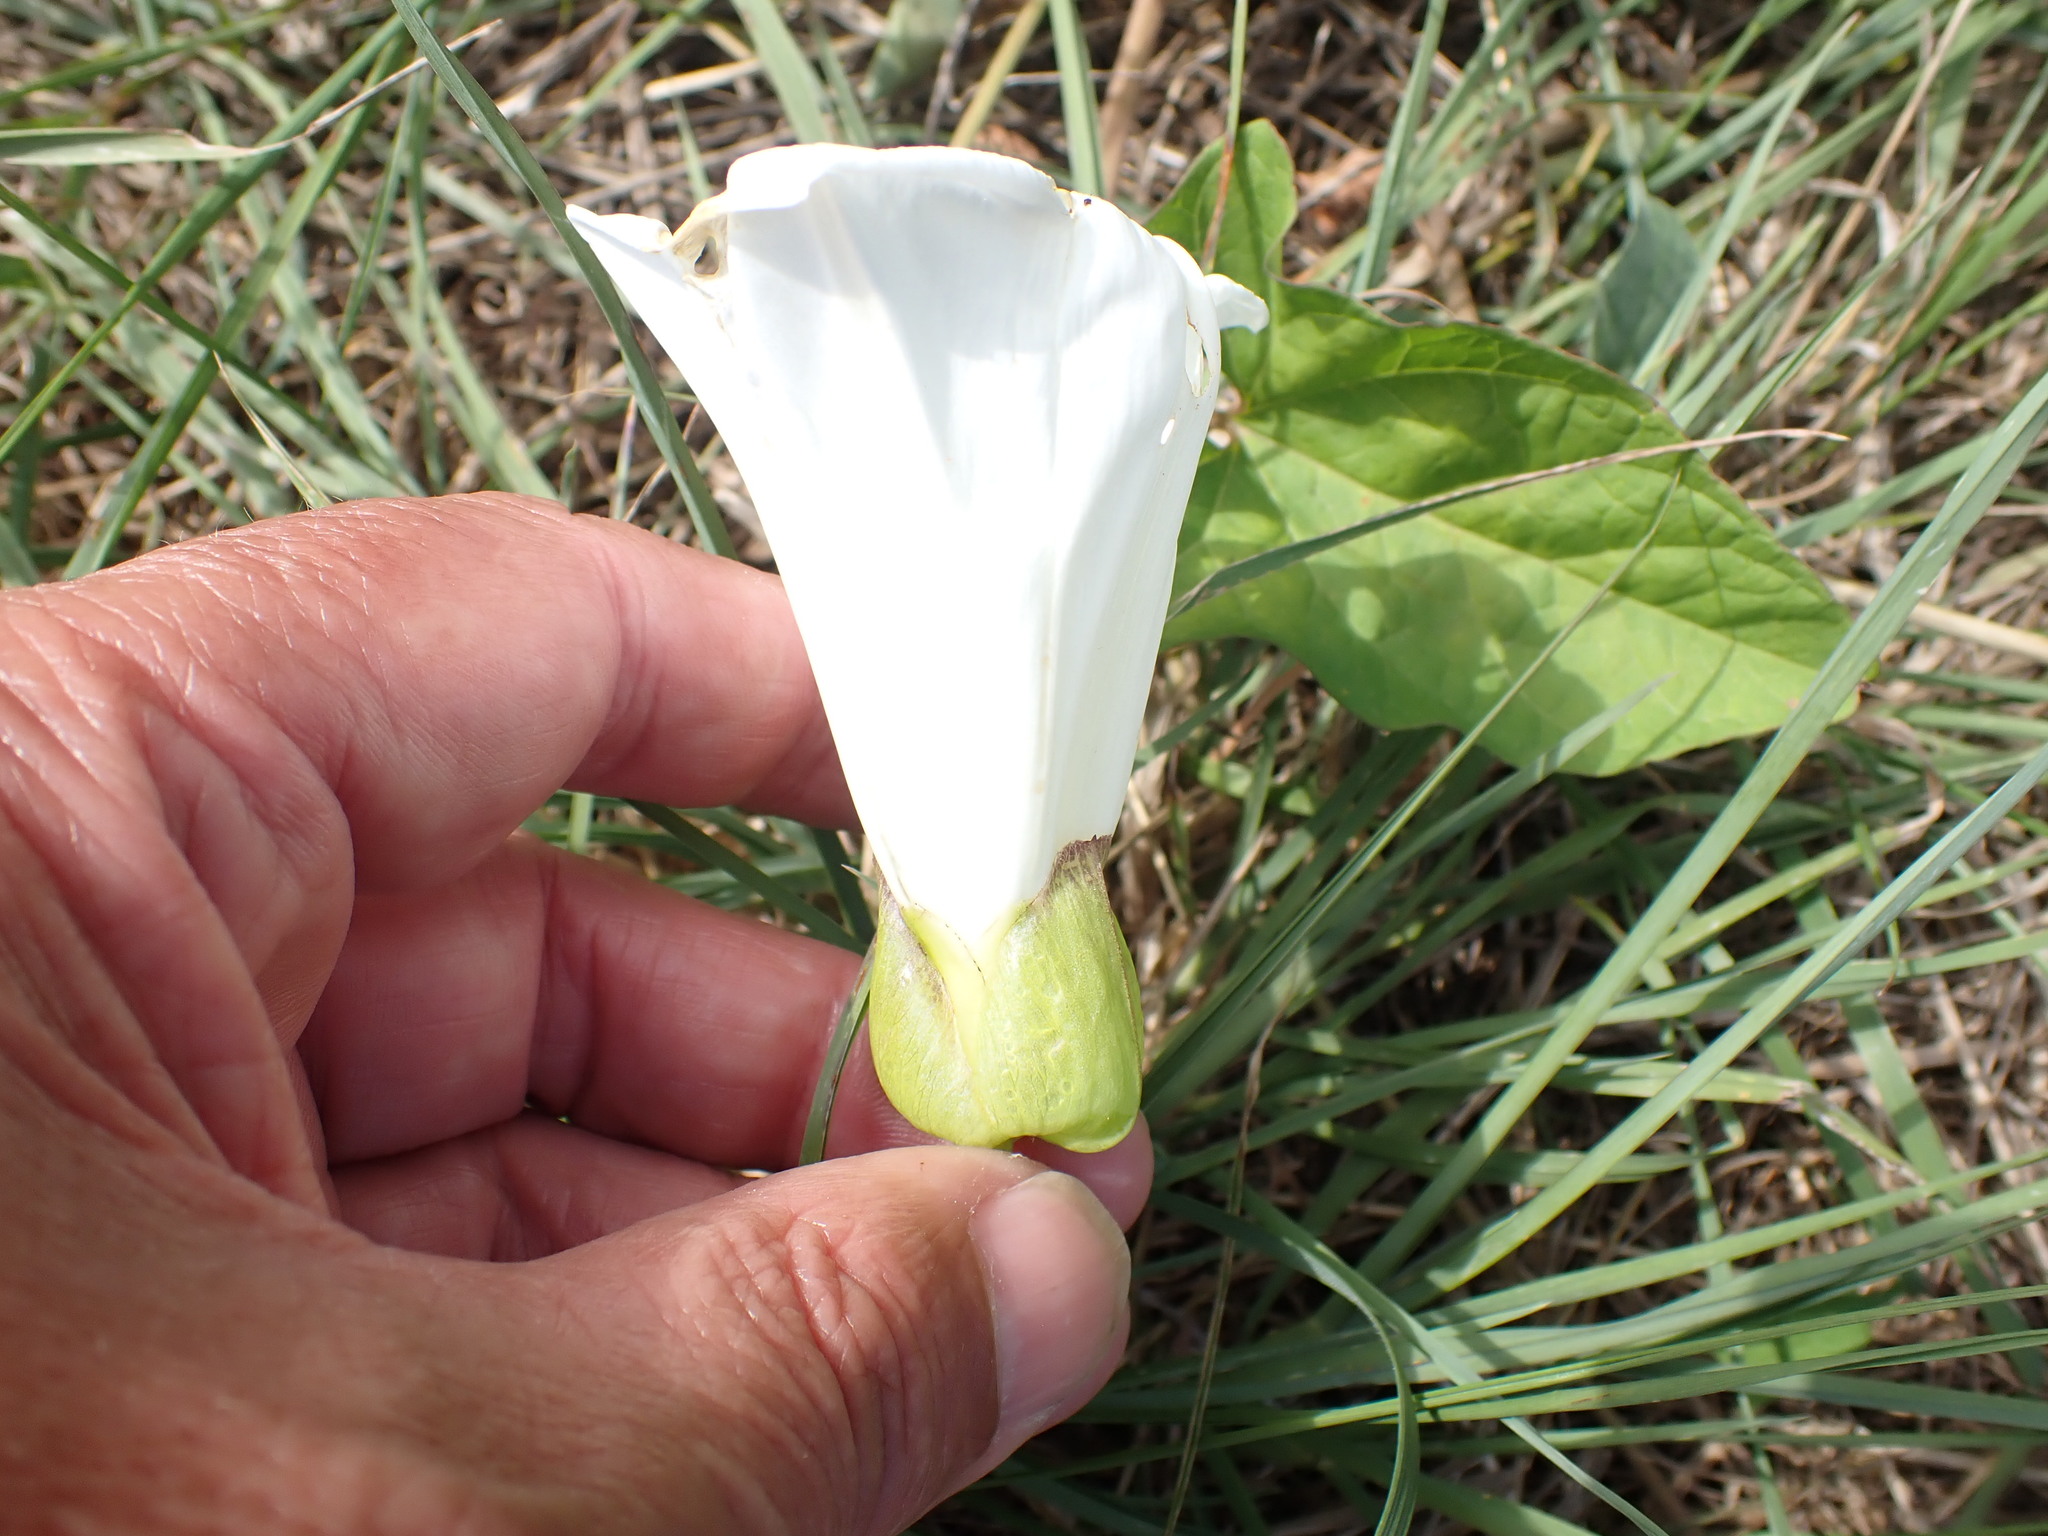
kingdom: Plantae
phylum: Tracheophyta
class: Magnoliopsida
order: Solanales
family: Convolvulaceae
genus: Calystegia
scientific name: Calystegia sepium
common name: Hedge bindweed
